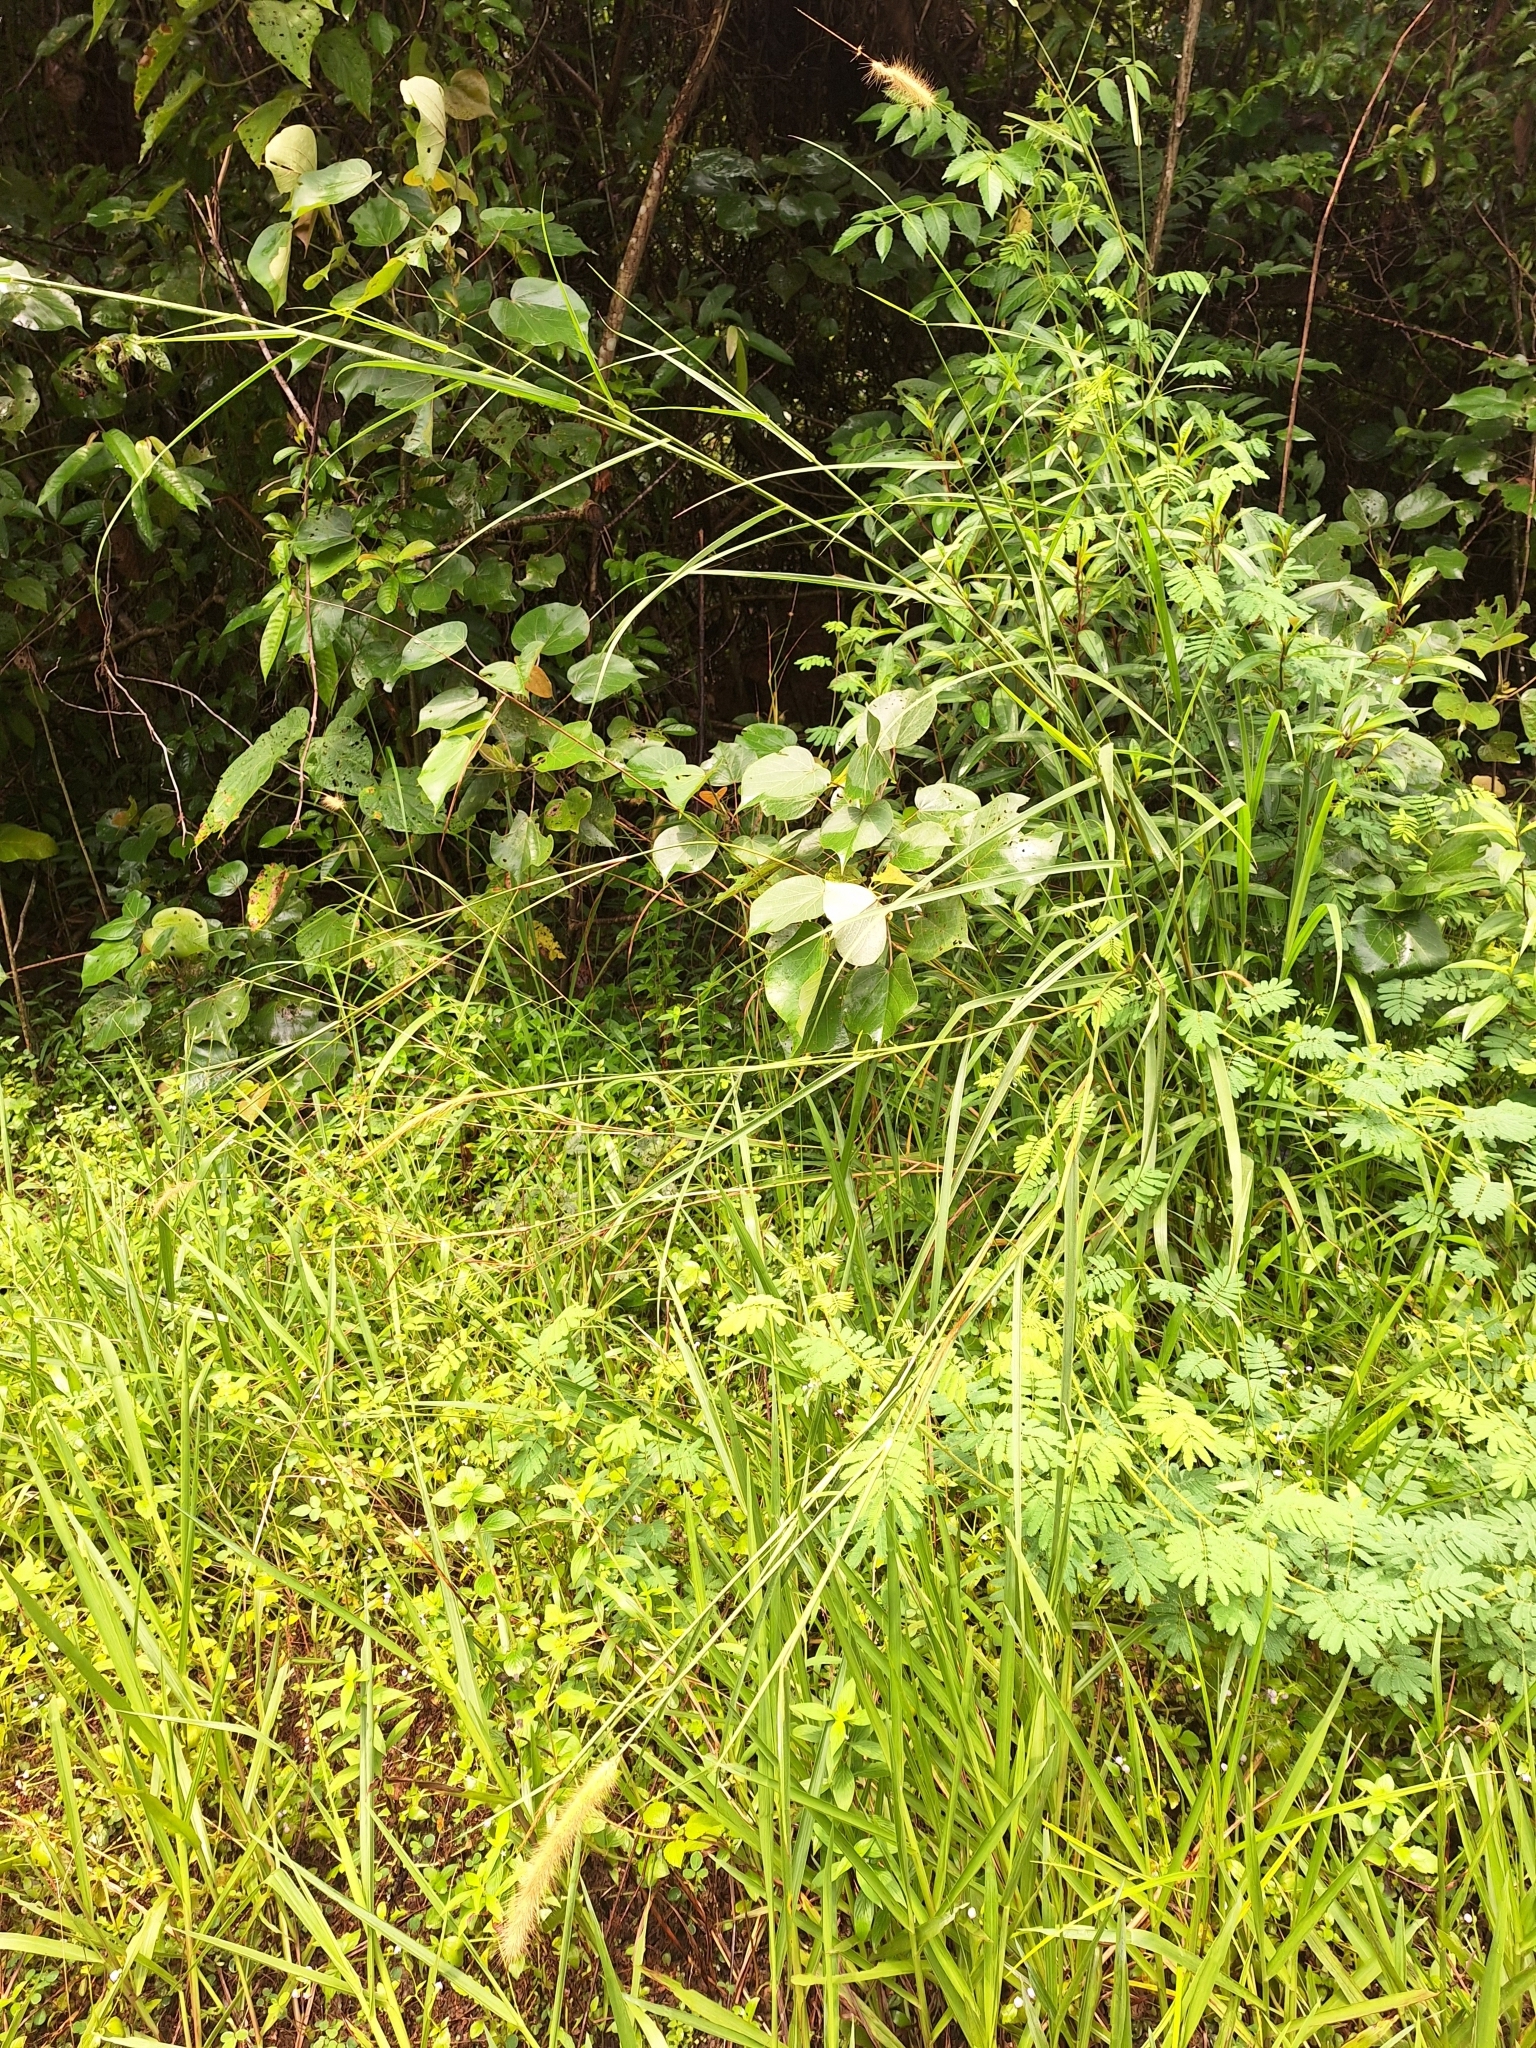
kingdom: Plantae
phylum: Tracheophyta
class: Liliopsida
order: Poales
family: Poaceae
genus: Cenchrus
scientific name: Cenchrus purpureus
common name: Elephant grass
